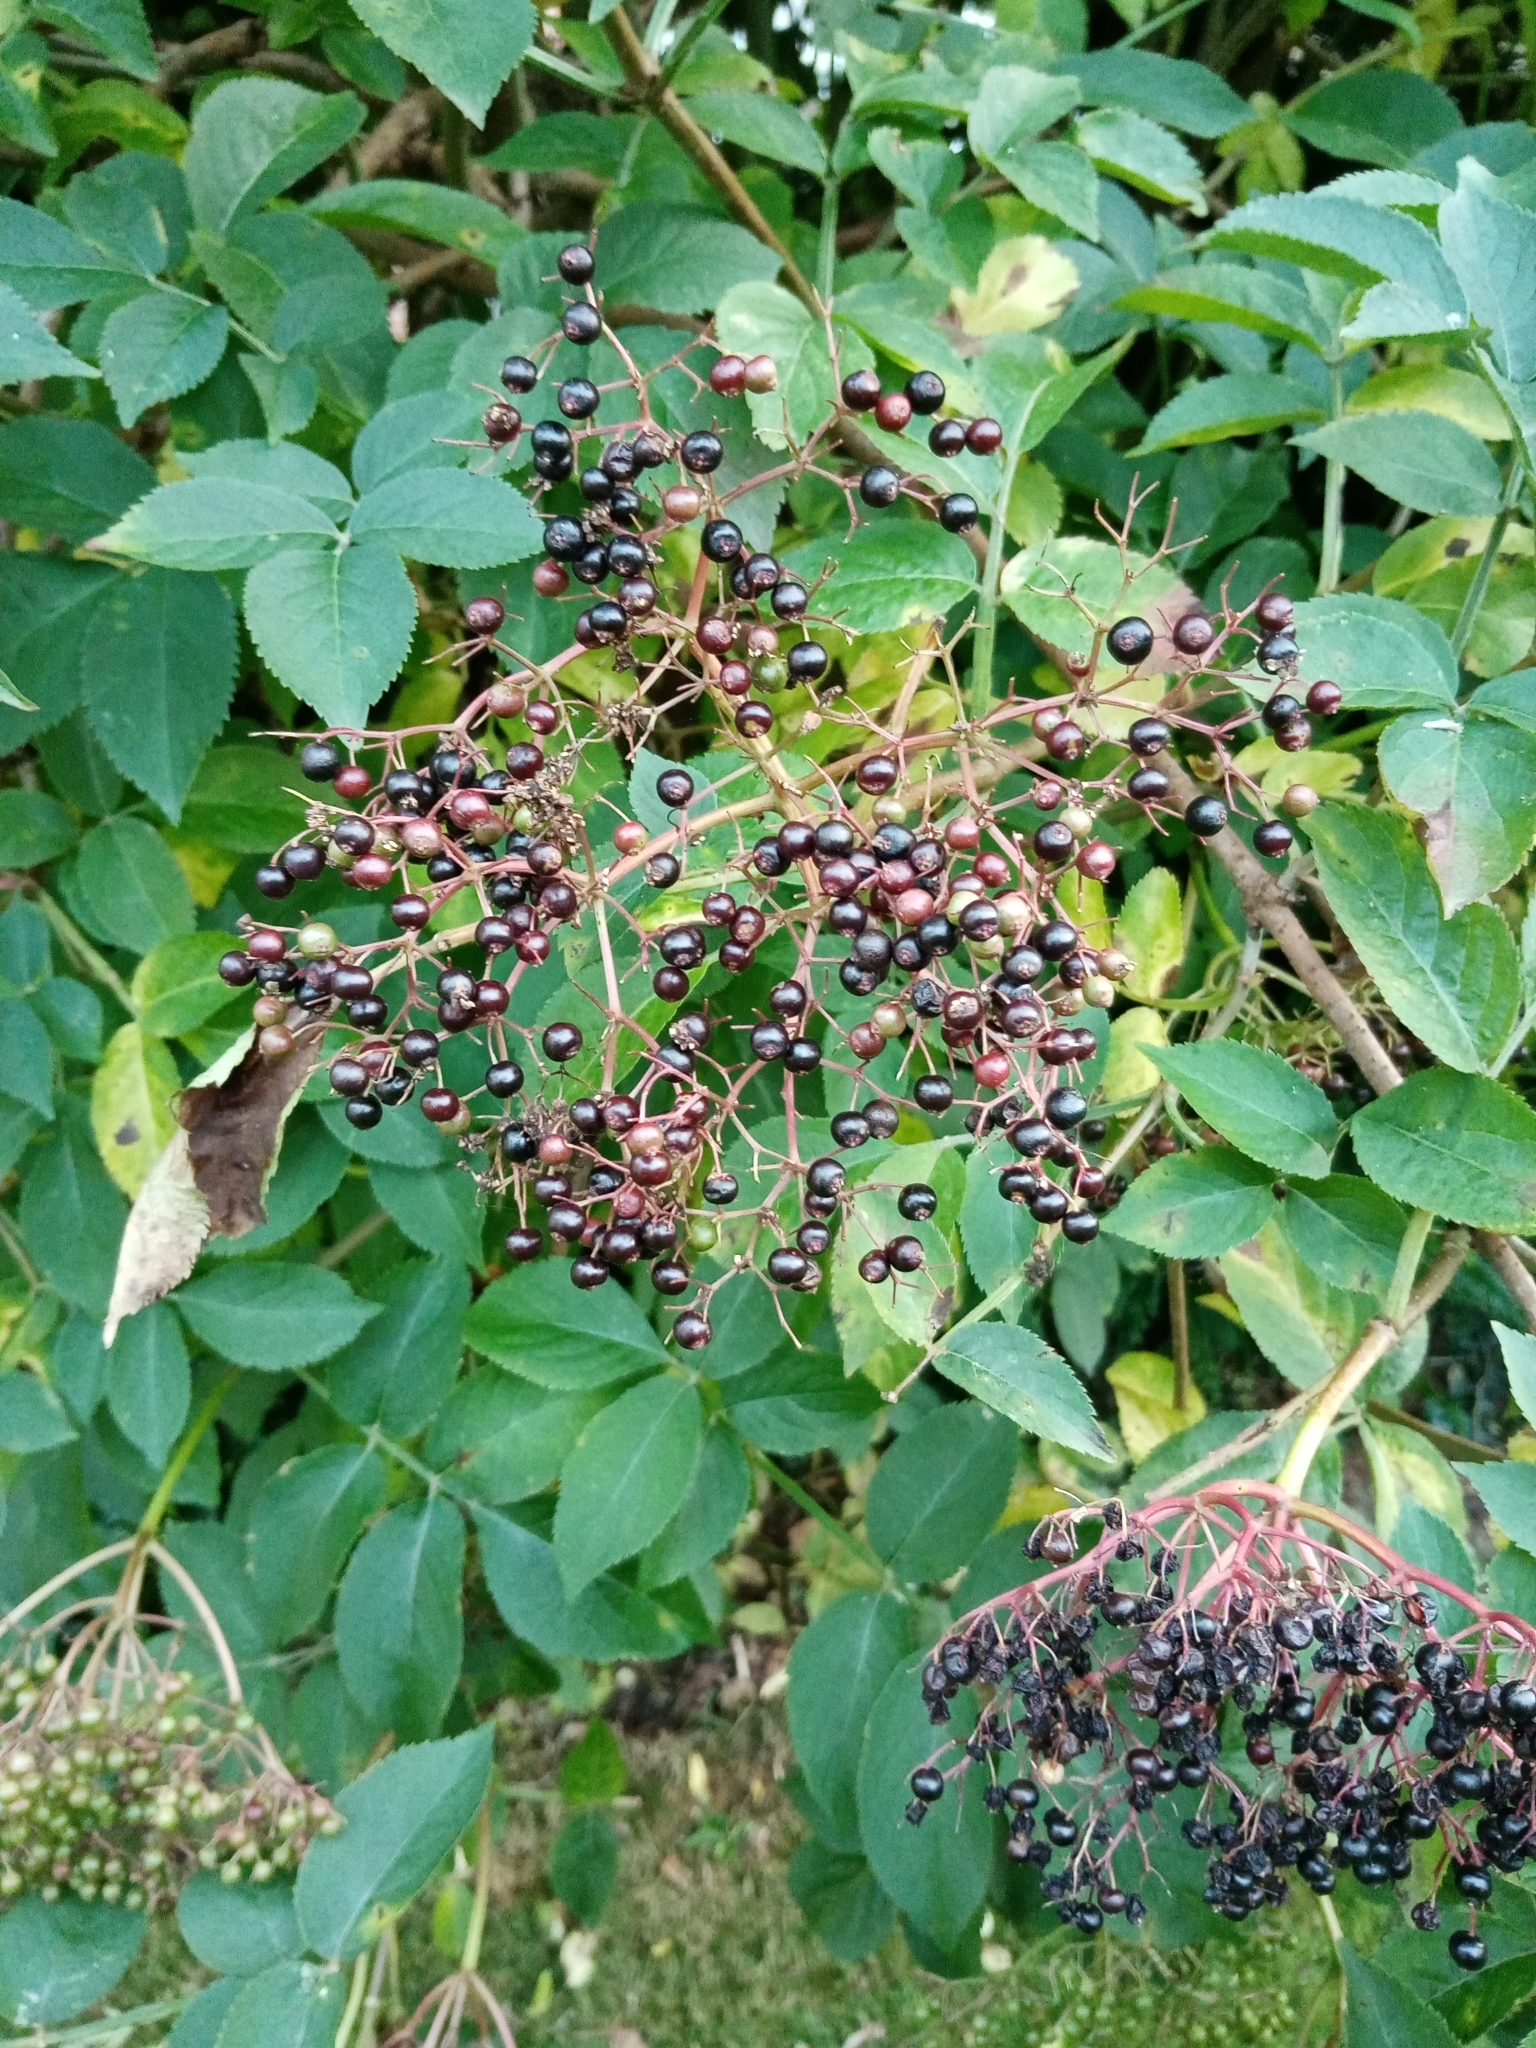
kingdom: Plantae
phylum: Tracheophyta
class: Magnoliopsida
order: Dipsacales
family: Viburnaceae
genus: Sambucus
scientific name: Sambucus nigra
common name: Elder
